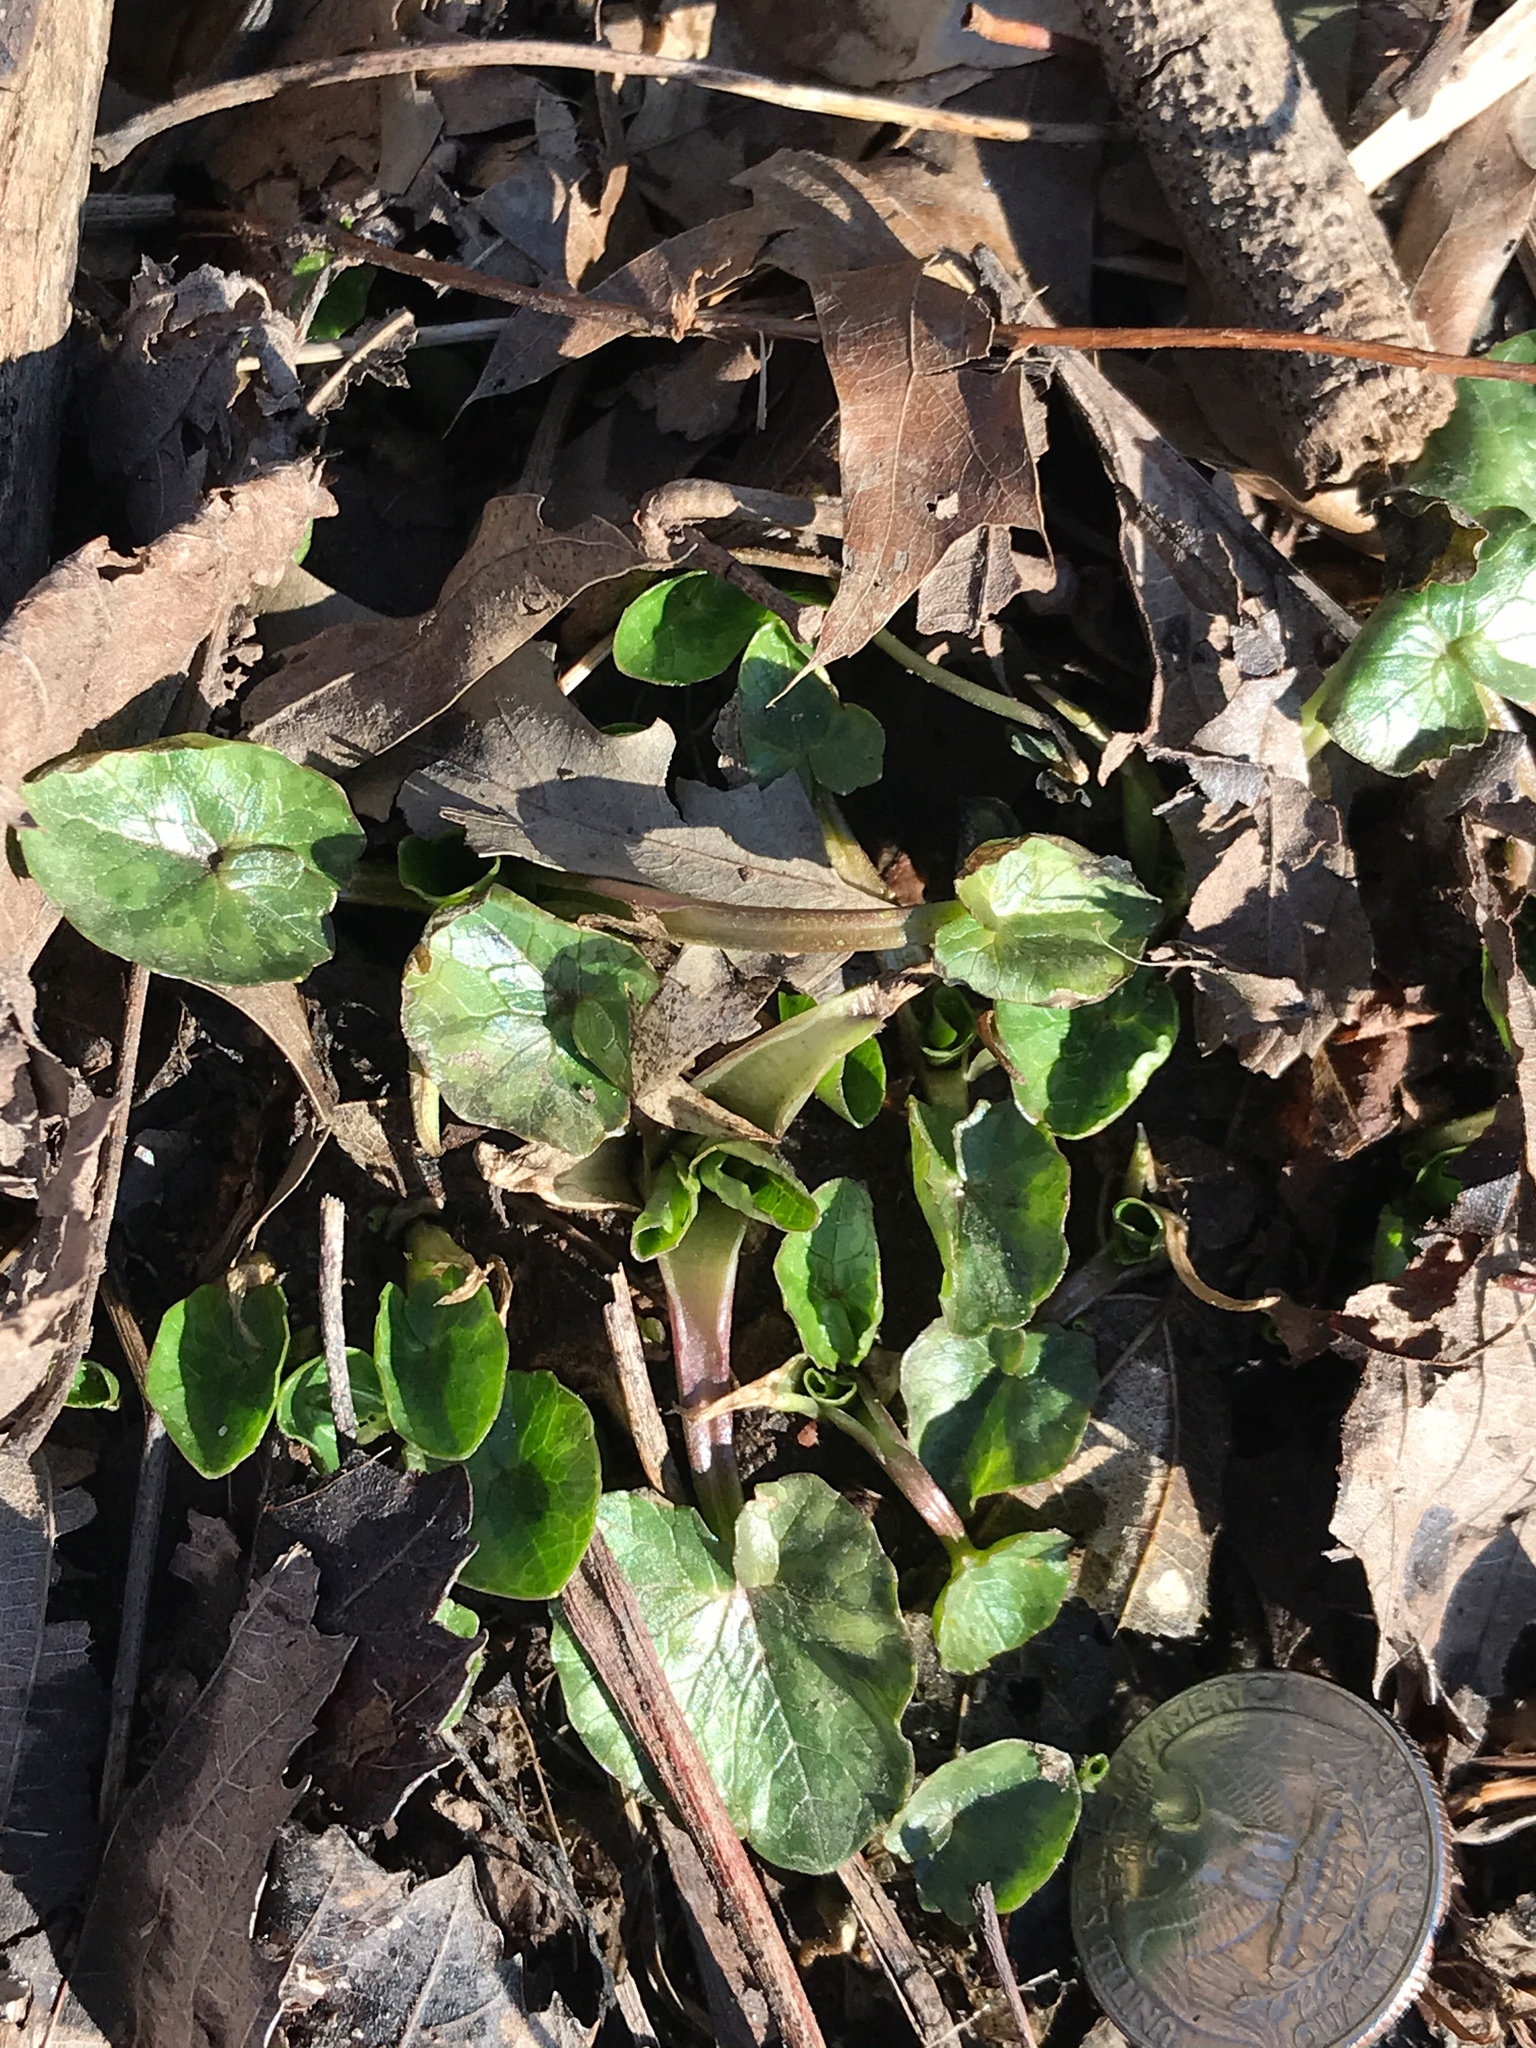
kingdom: Plantae
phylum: Tracheophyta
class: Magnoliopsida
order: Ranunculales
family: Ranunculaceae
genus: Ficaria
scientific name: Ficaria verna
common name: Lesser celandine
